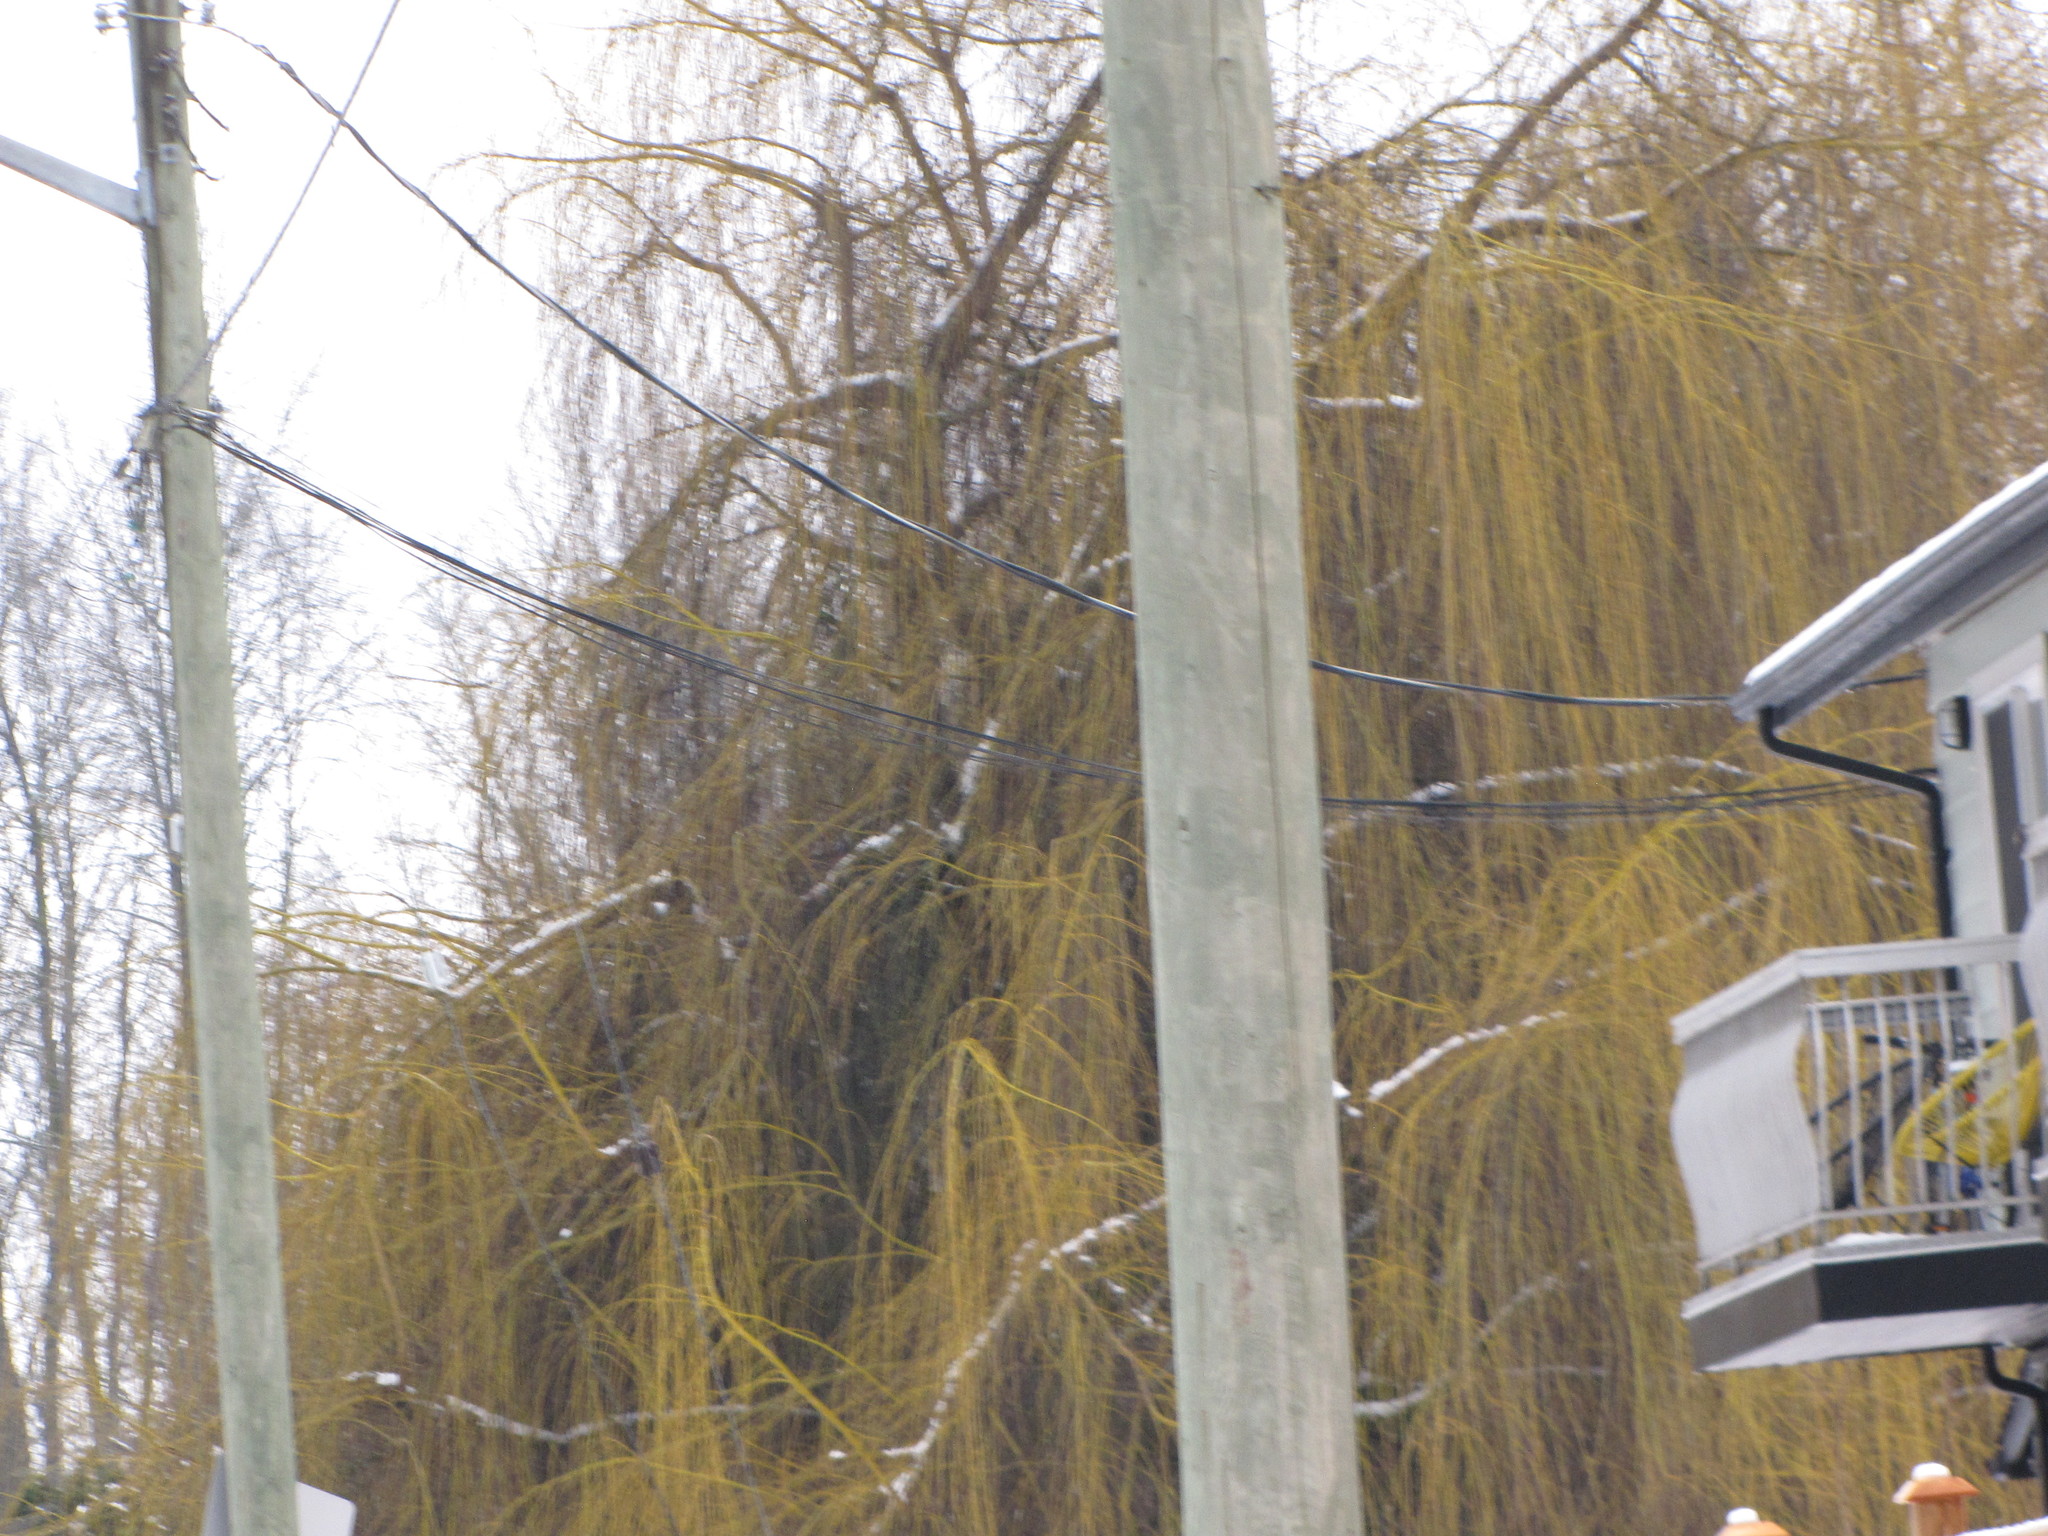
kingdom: Plantae
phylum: Tracheophyta
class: Magnoliopsida
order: Malpighiales
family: Salicaceae
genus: Salix
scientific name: Salix pendulina
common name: Wisconsin weeping willow
